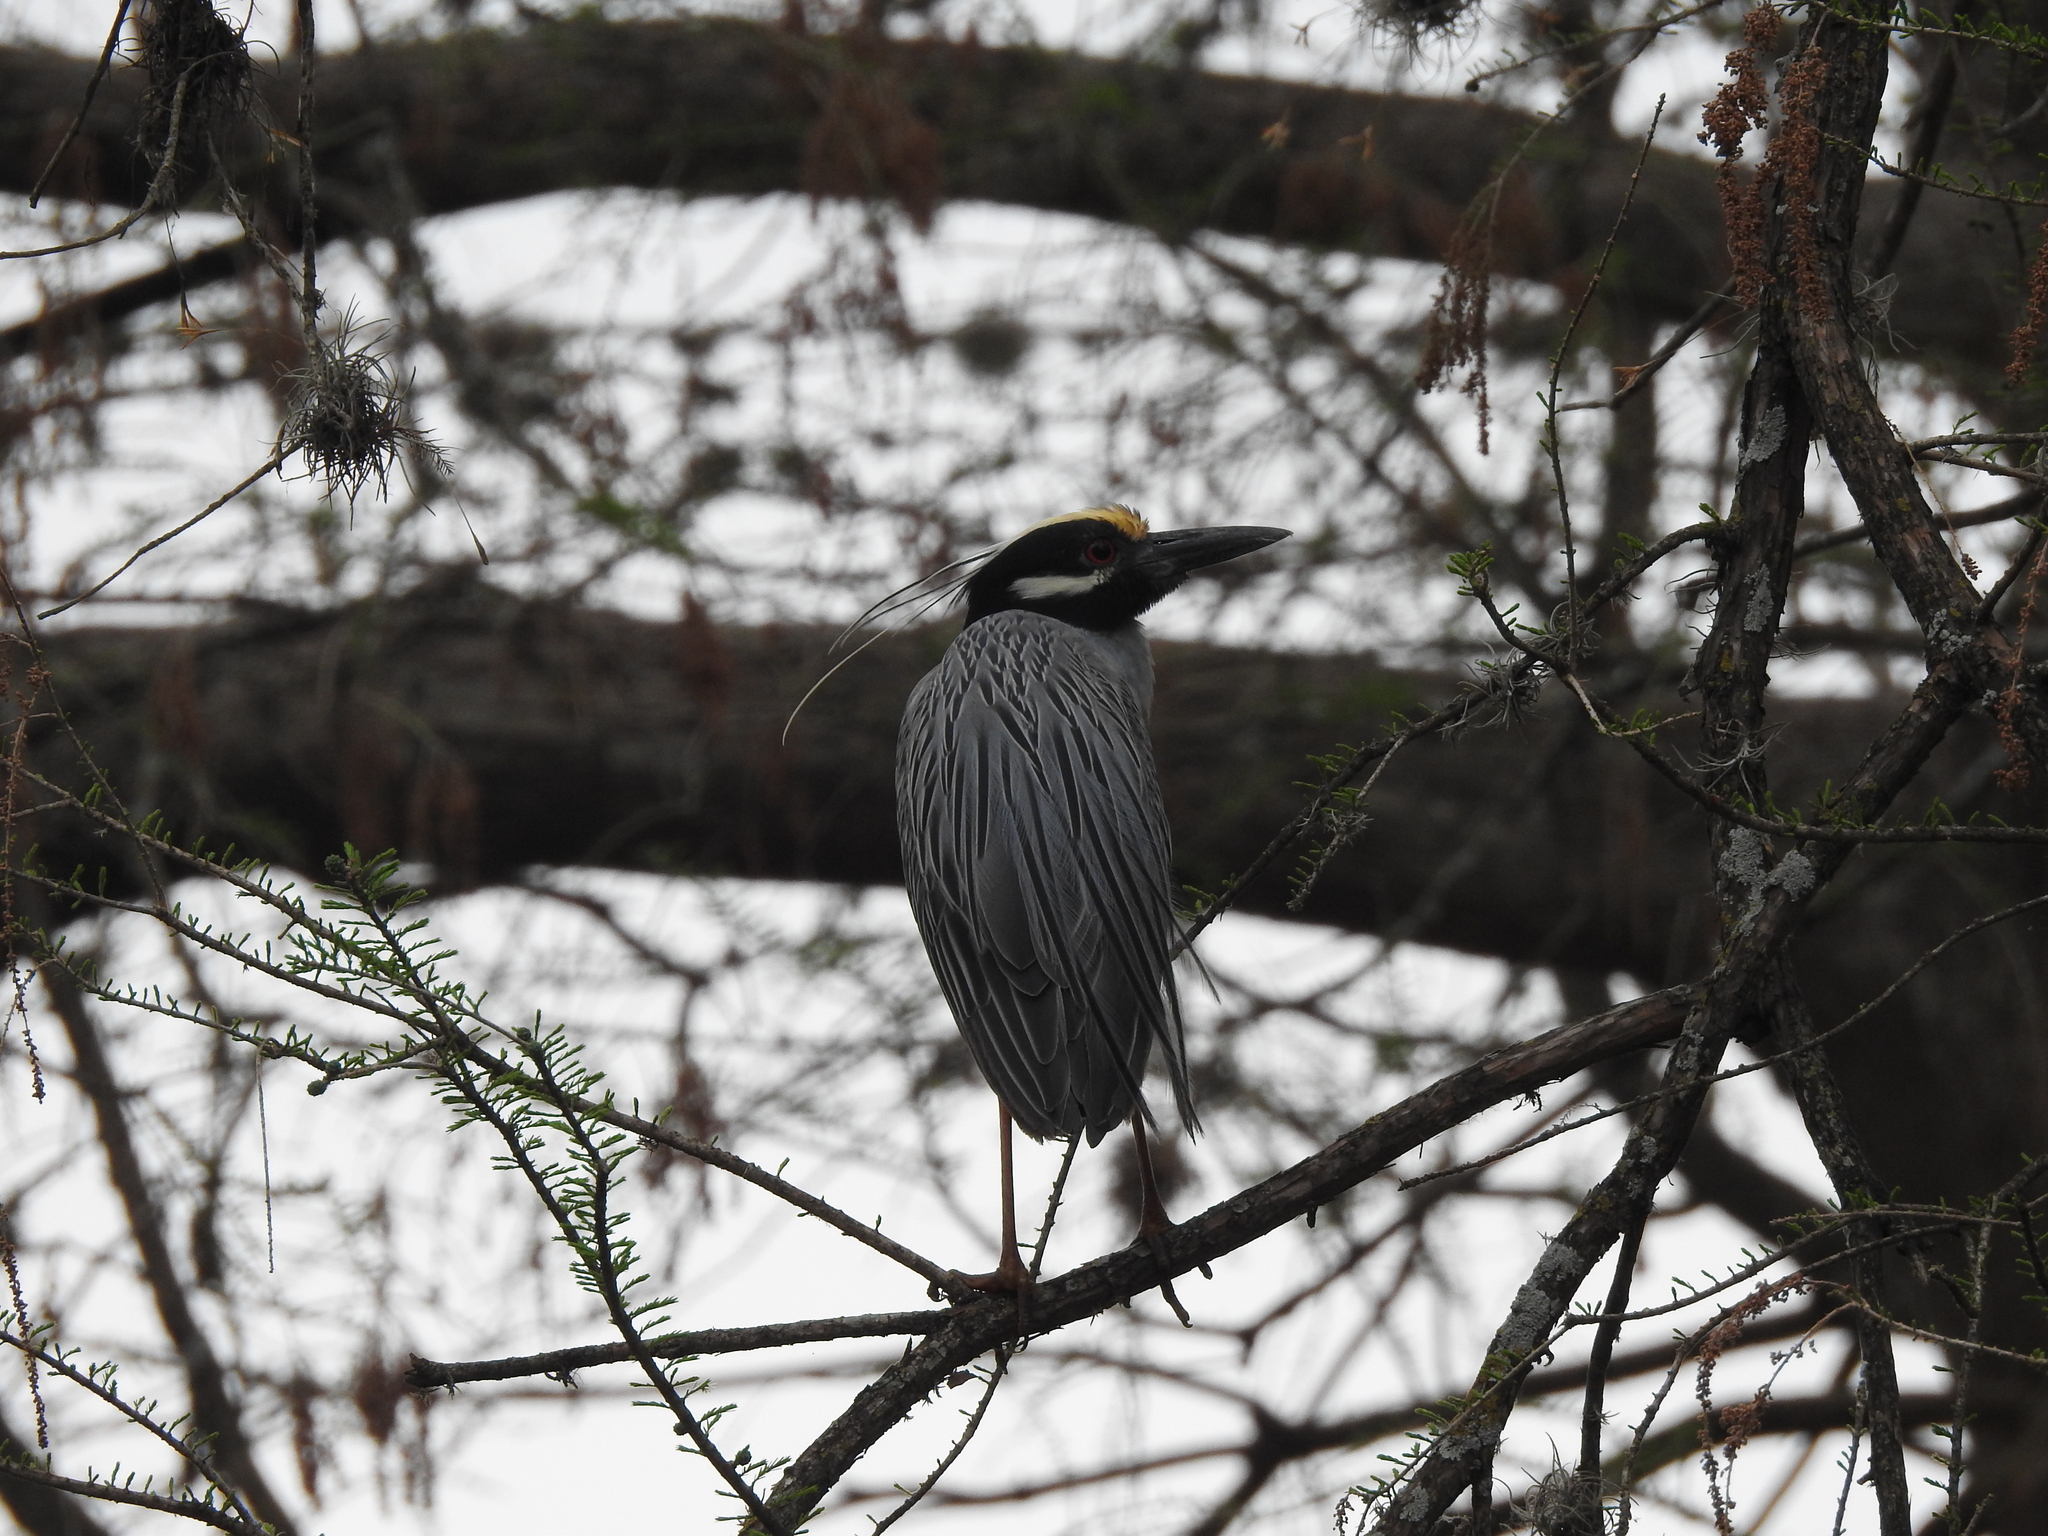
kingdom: Animalia
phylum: Chordata
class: Aves
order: Pelecaniformes
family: Ardeidae
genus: Nyctanassa
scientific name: Nyctanassa violacea
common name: Yellow-crowned night heron
